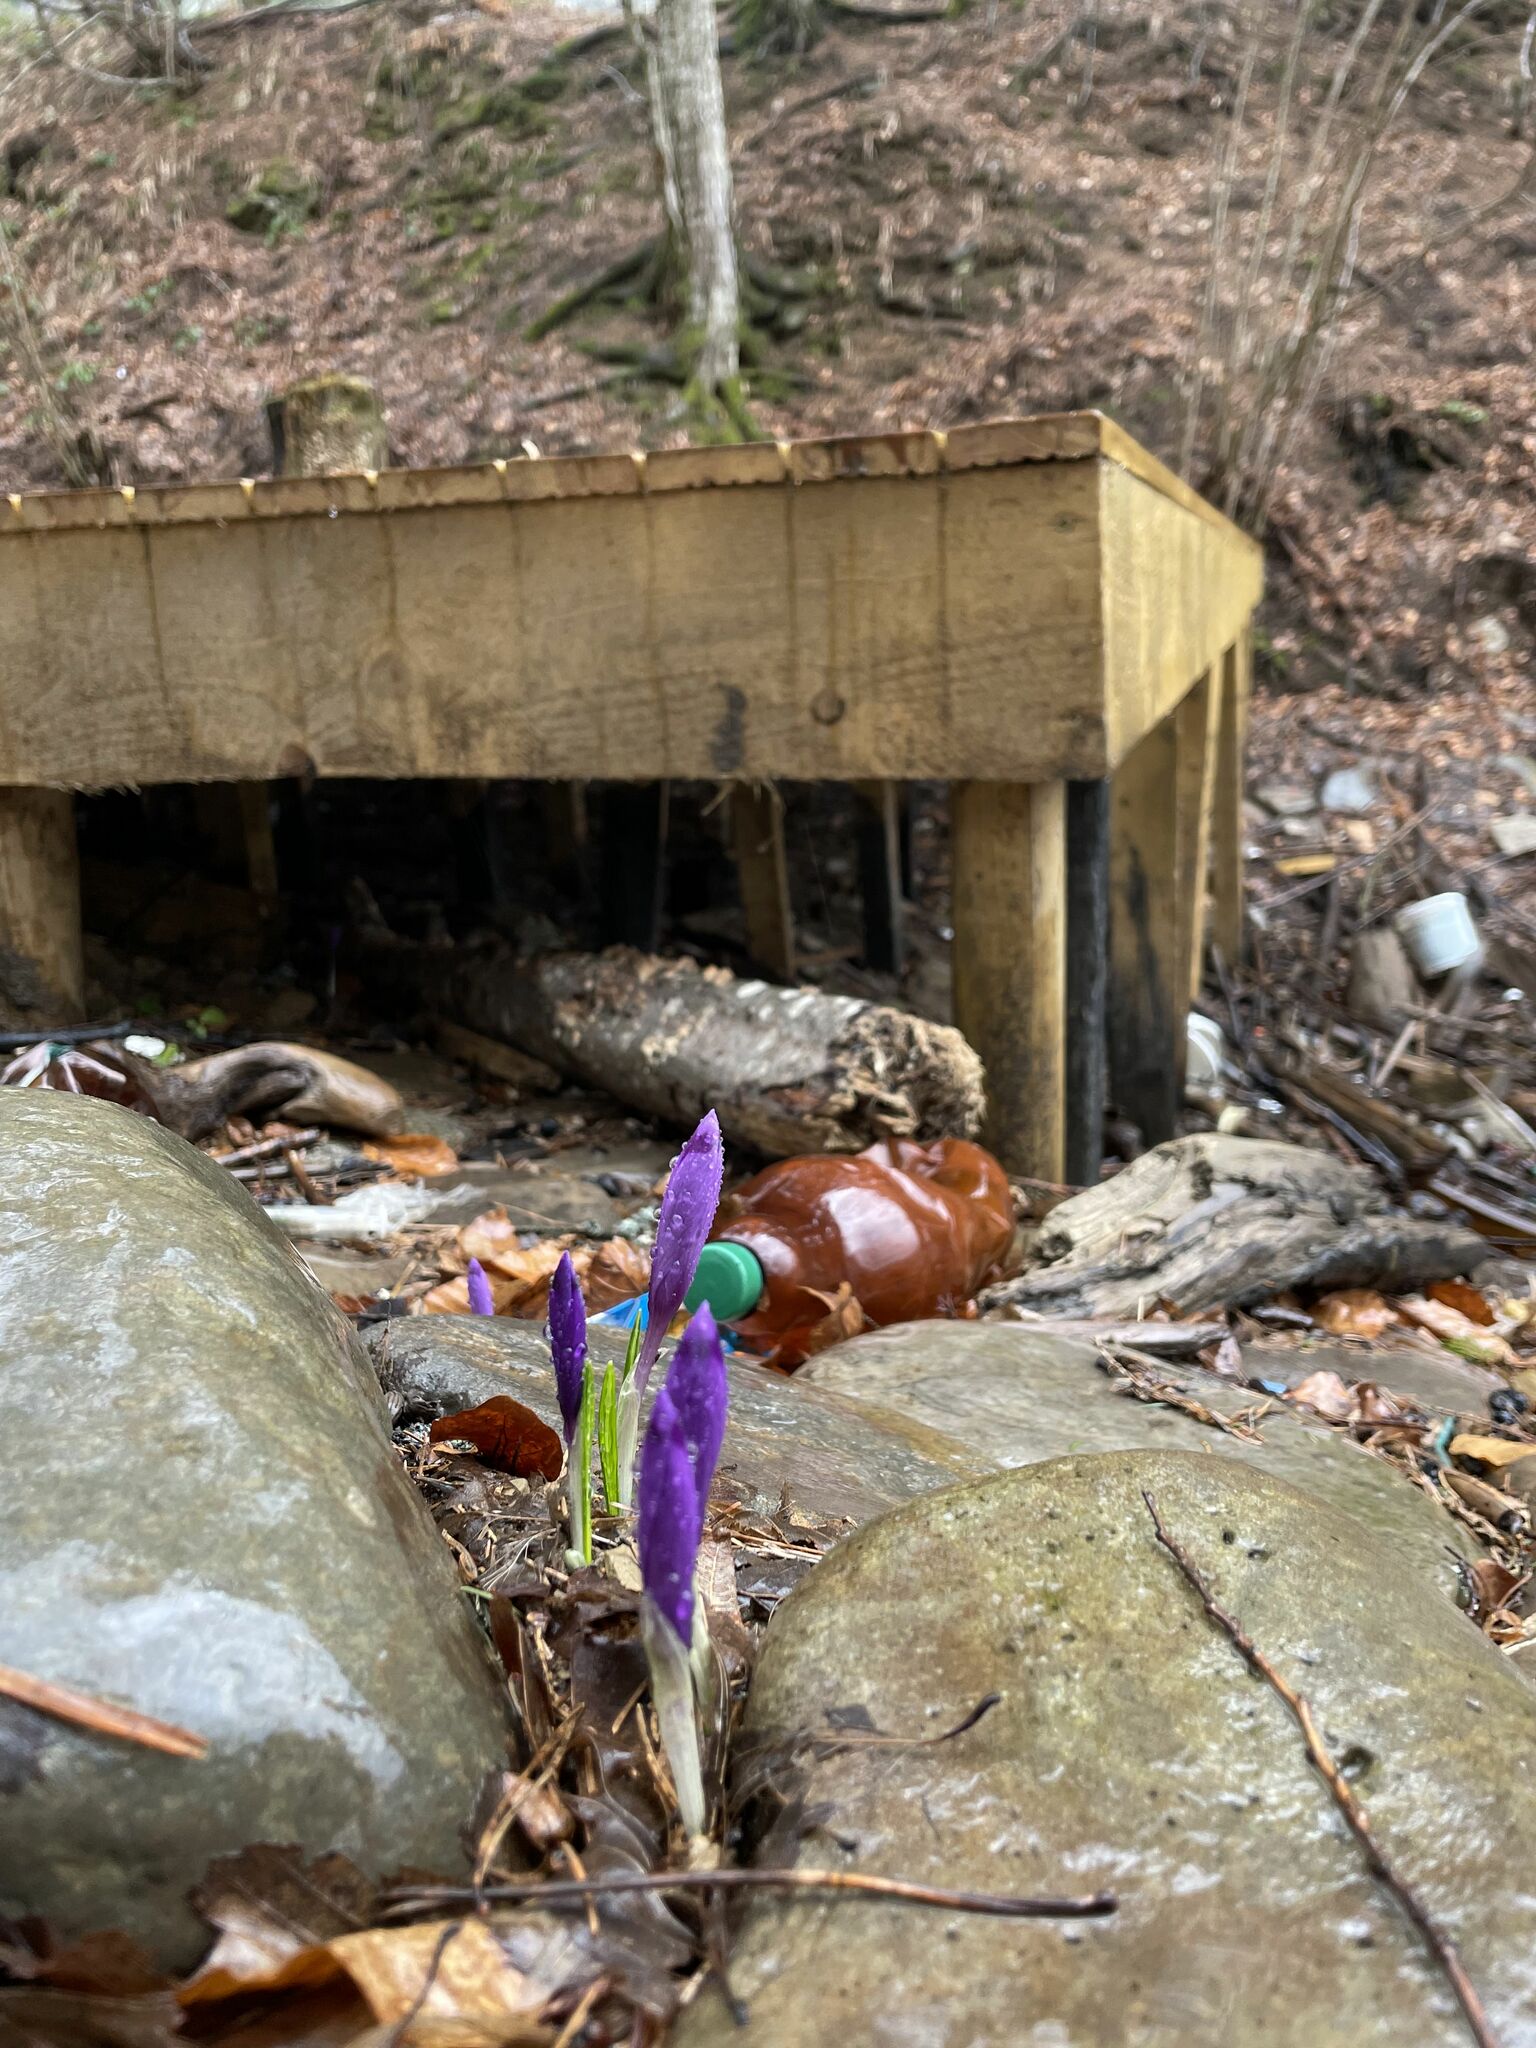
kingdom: Plantae
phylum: Tracheophyta
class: Liliopsida
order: Asparagales
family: Iridaceae
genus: Crocus
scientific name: Crocus heuffelianus
